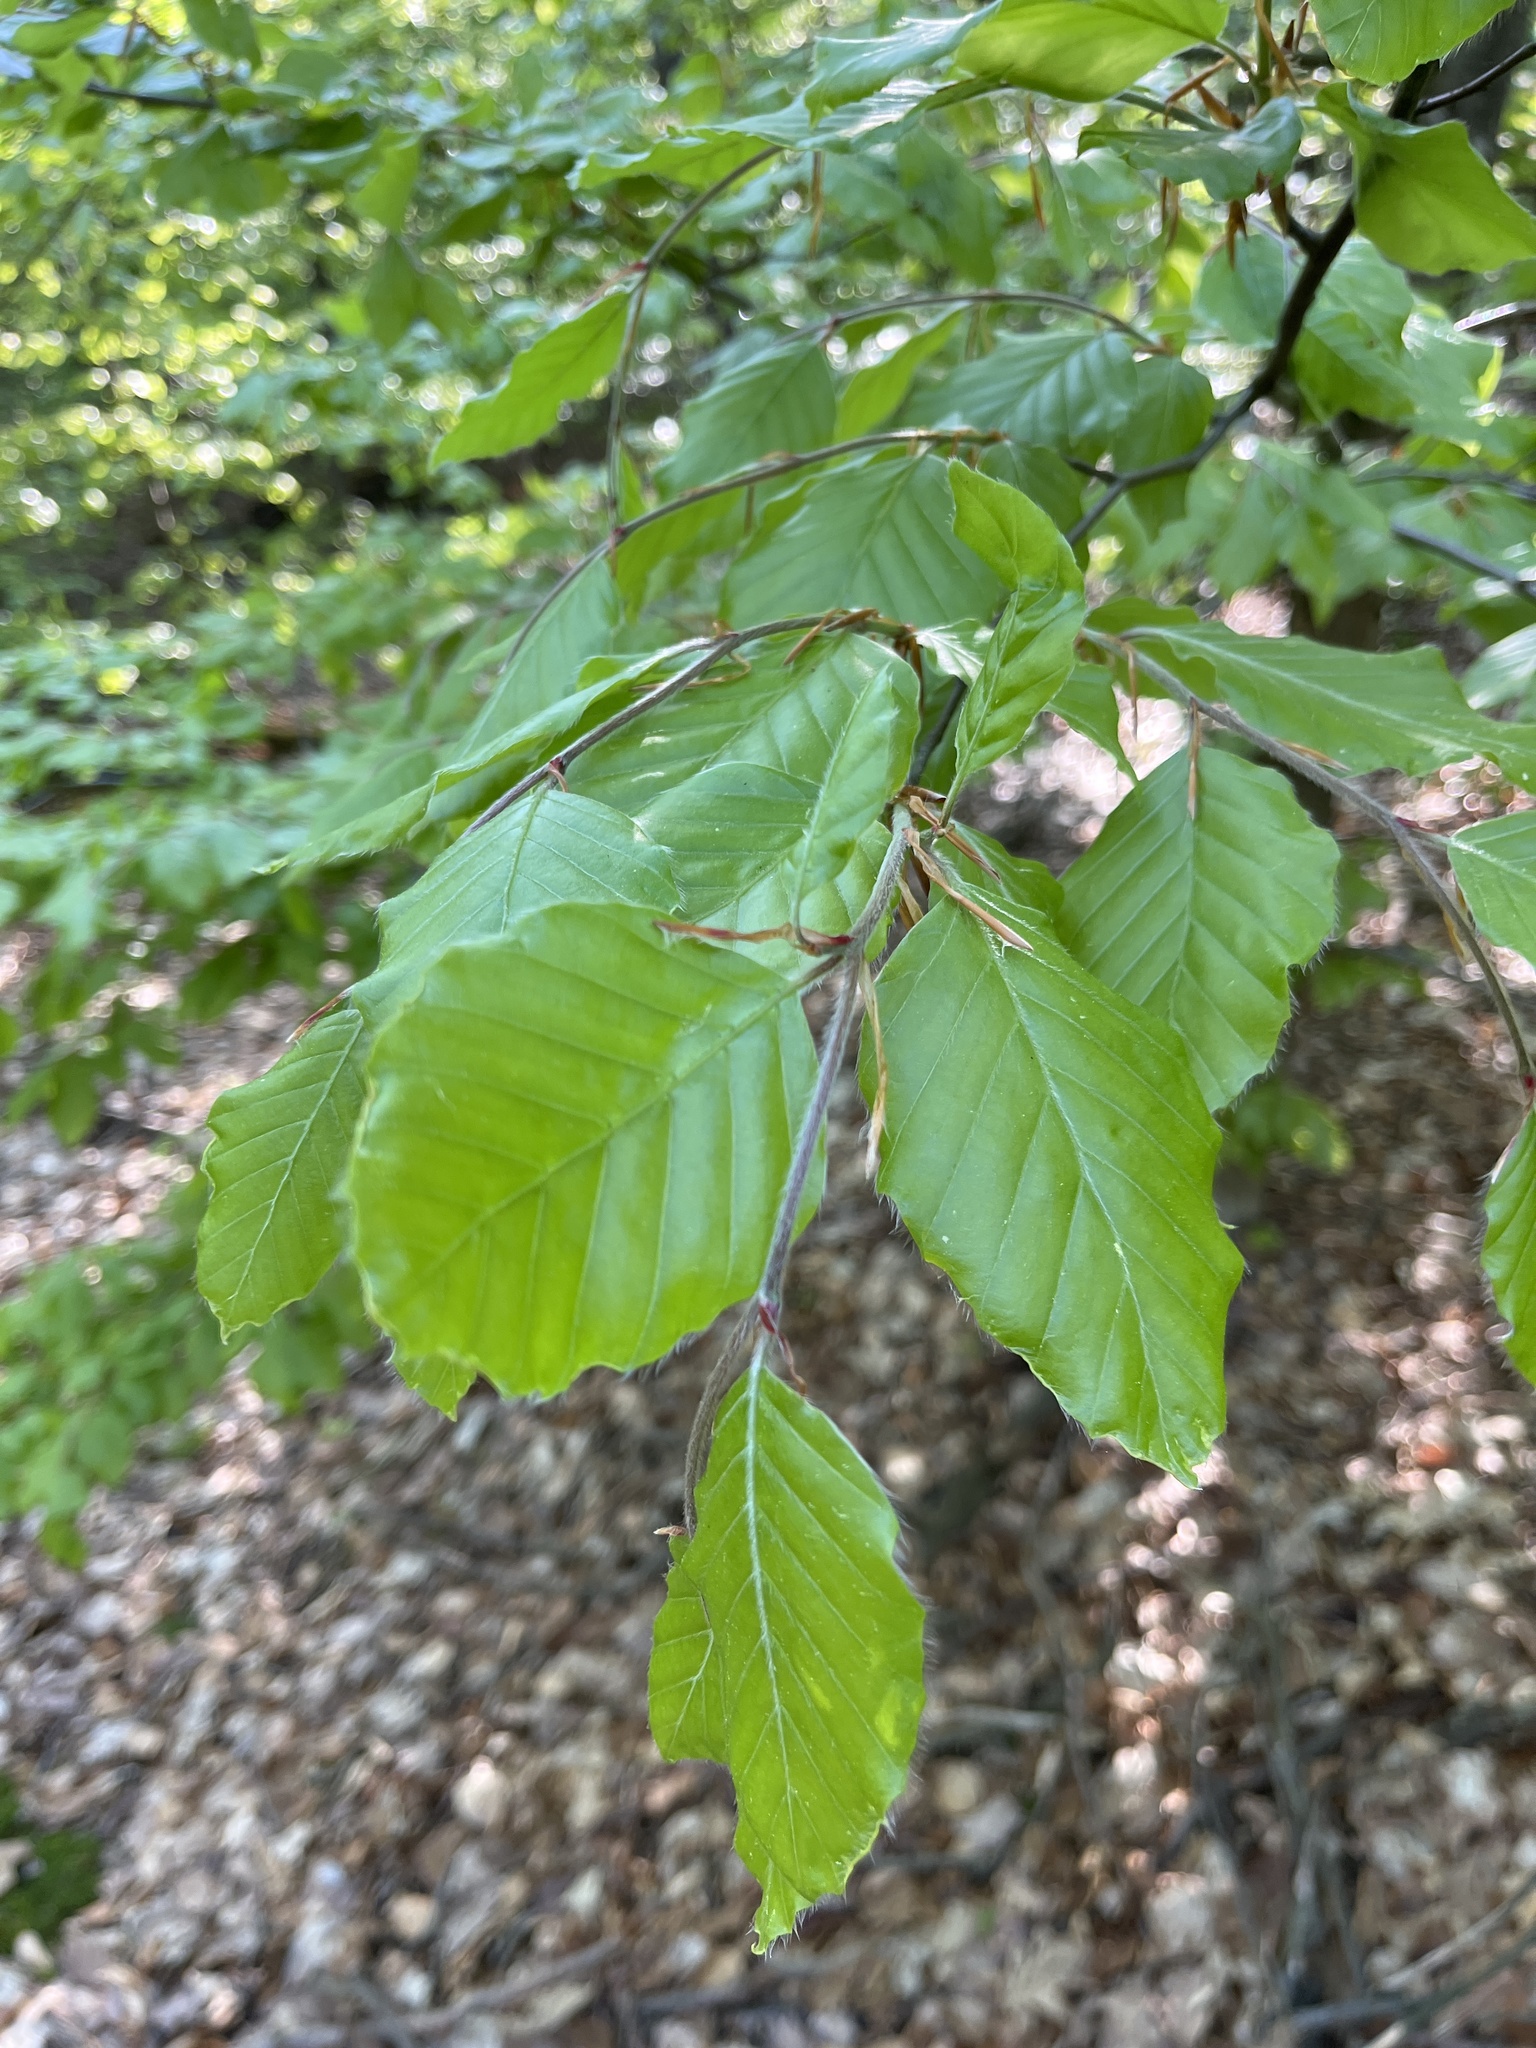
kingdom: Plantae
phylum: Tracheophyta
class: Magnoliopsida
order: Fagales
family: Fagaceae
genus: Fagus
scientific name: Fagus sylvatica
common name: Beech
